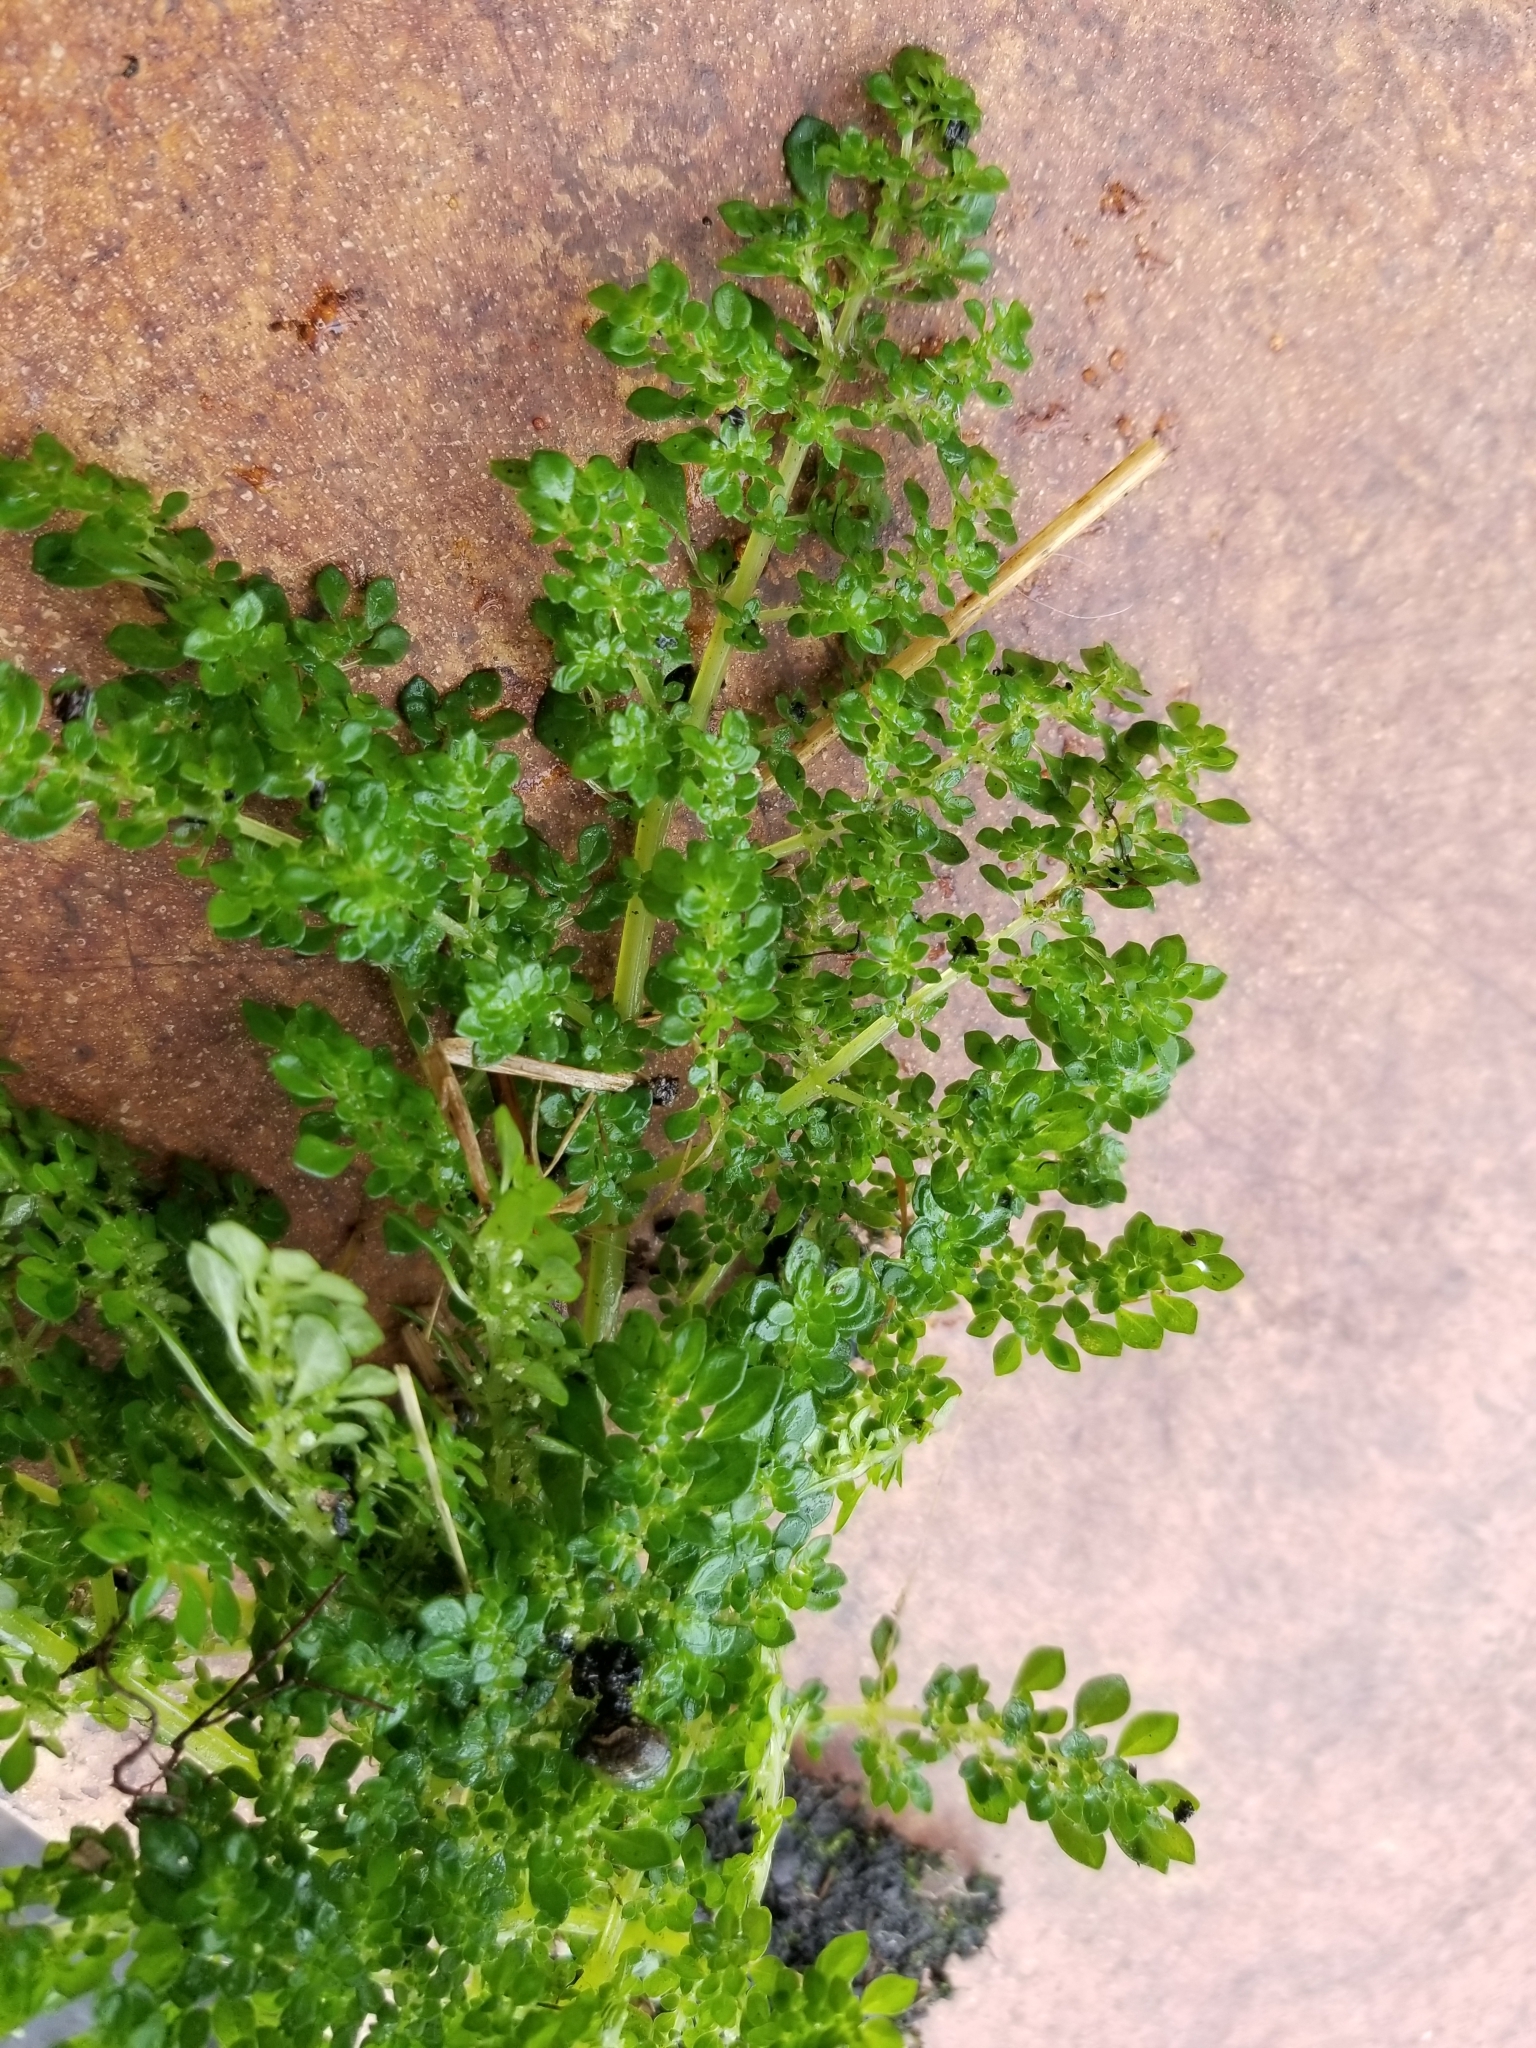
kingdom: Plantae
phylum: Tracheophyta
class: Magnoliopsida
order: Rosales
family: Urticaceae
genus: Pilea
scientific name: Pilea microphylla
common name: Artillery-plant
